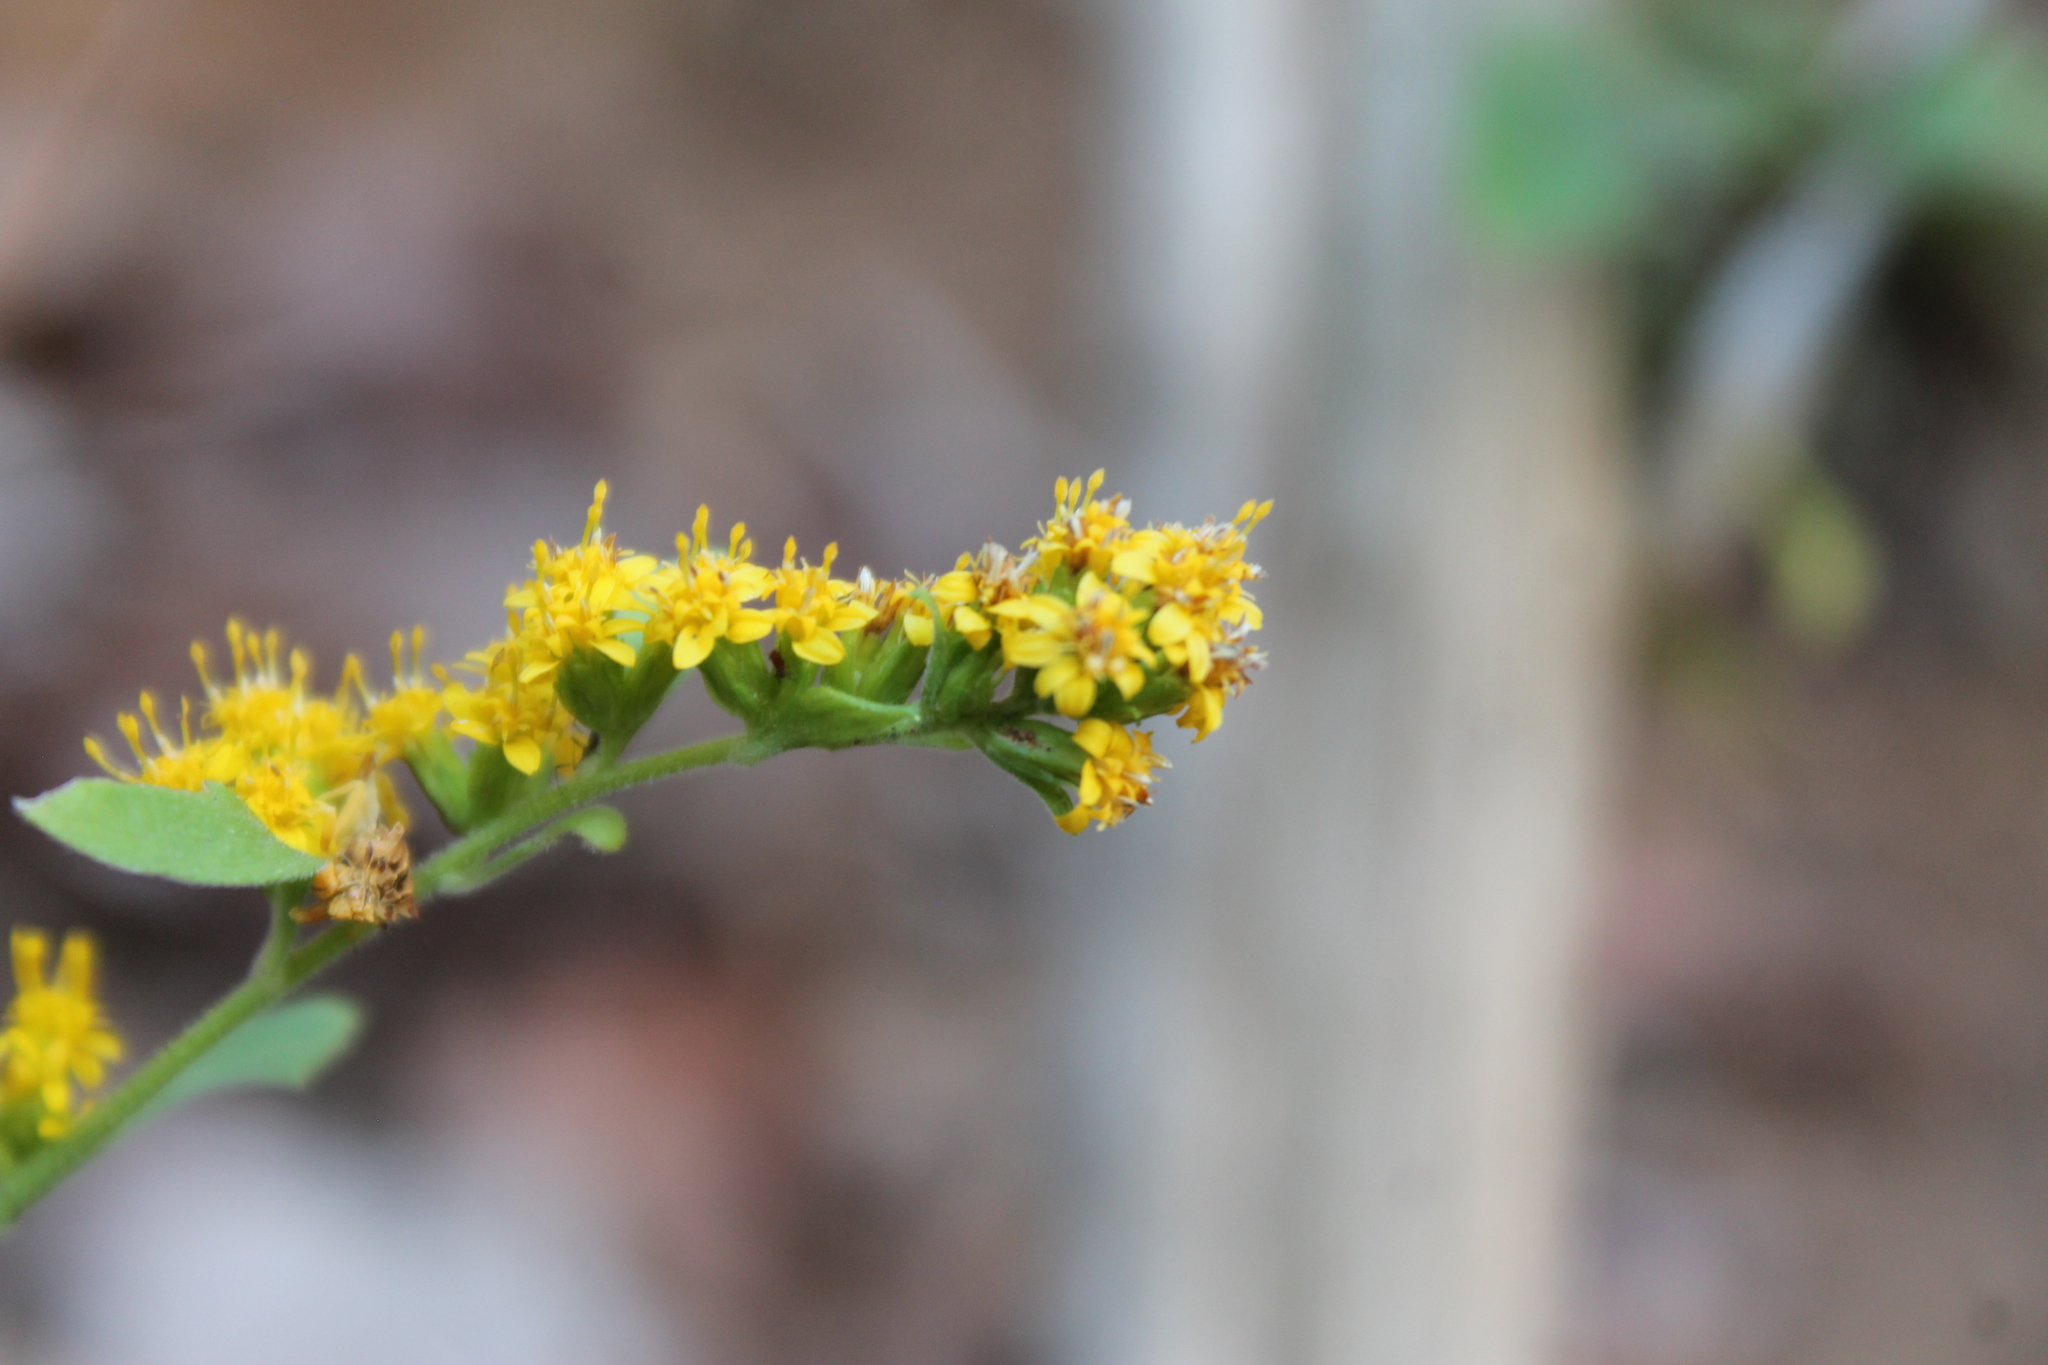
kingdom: Plantae
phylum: Tracheophyta
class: Magnoliopsida
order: Asterales
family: Asteraceae
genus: Solidago
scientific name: Solidago sphacelata
